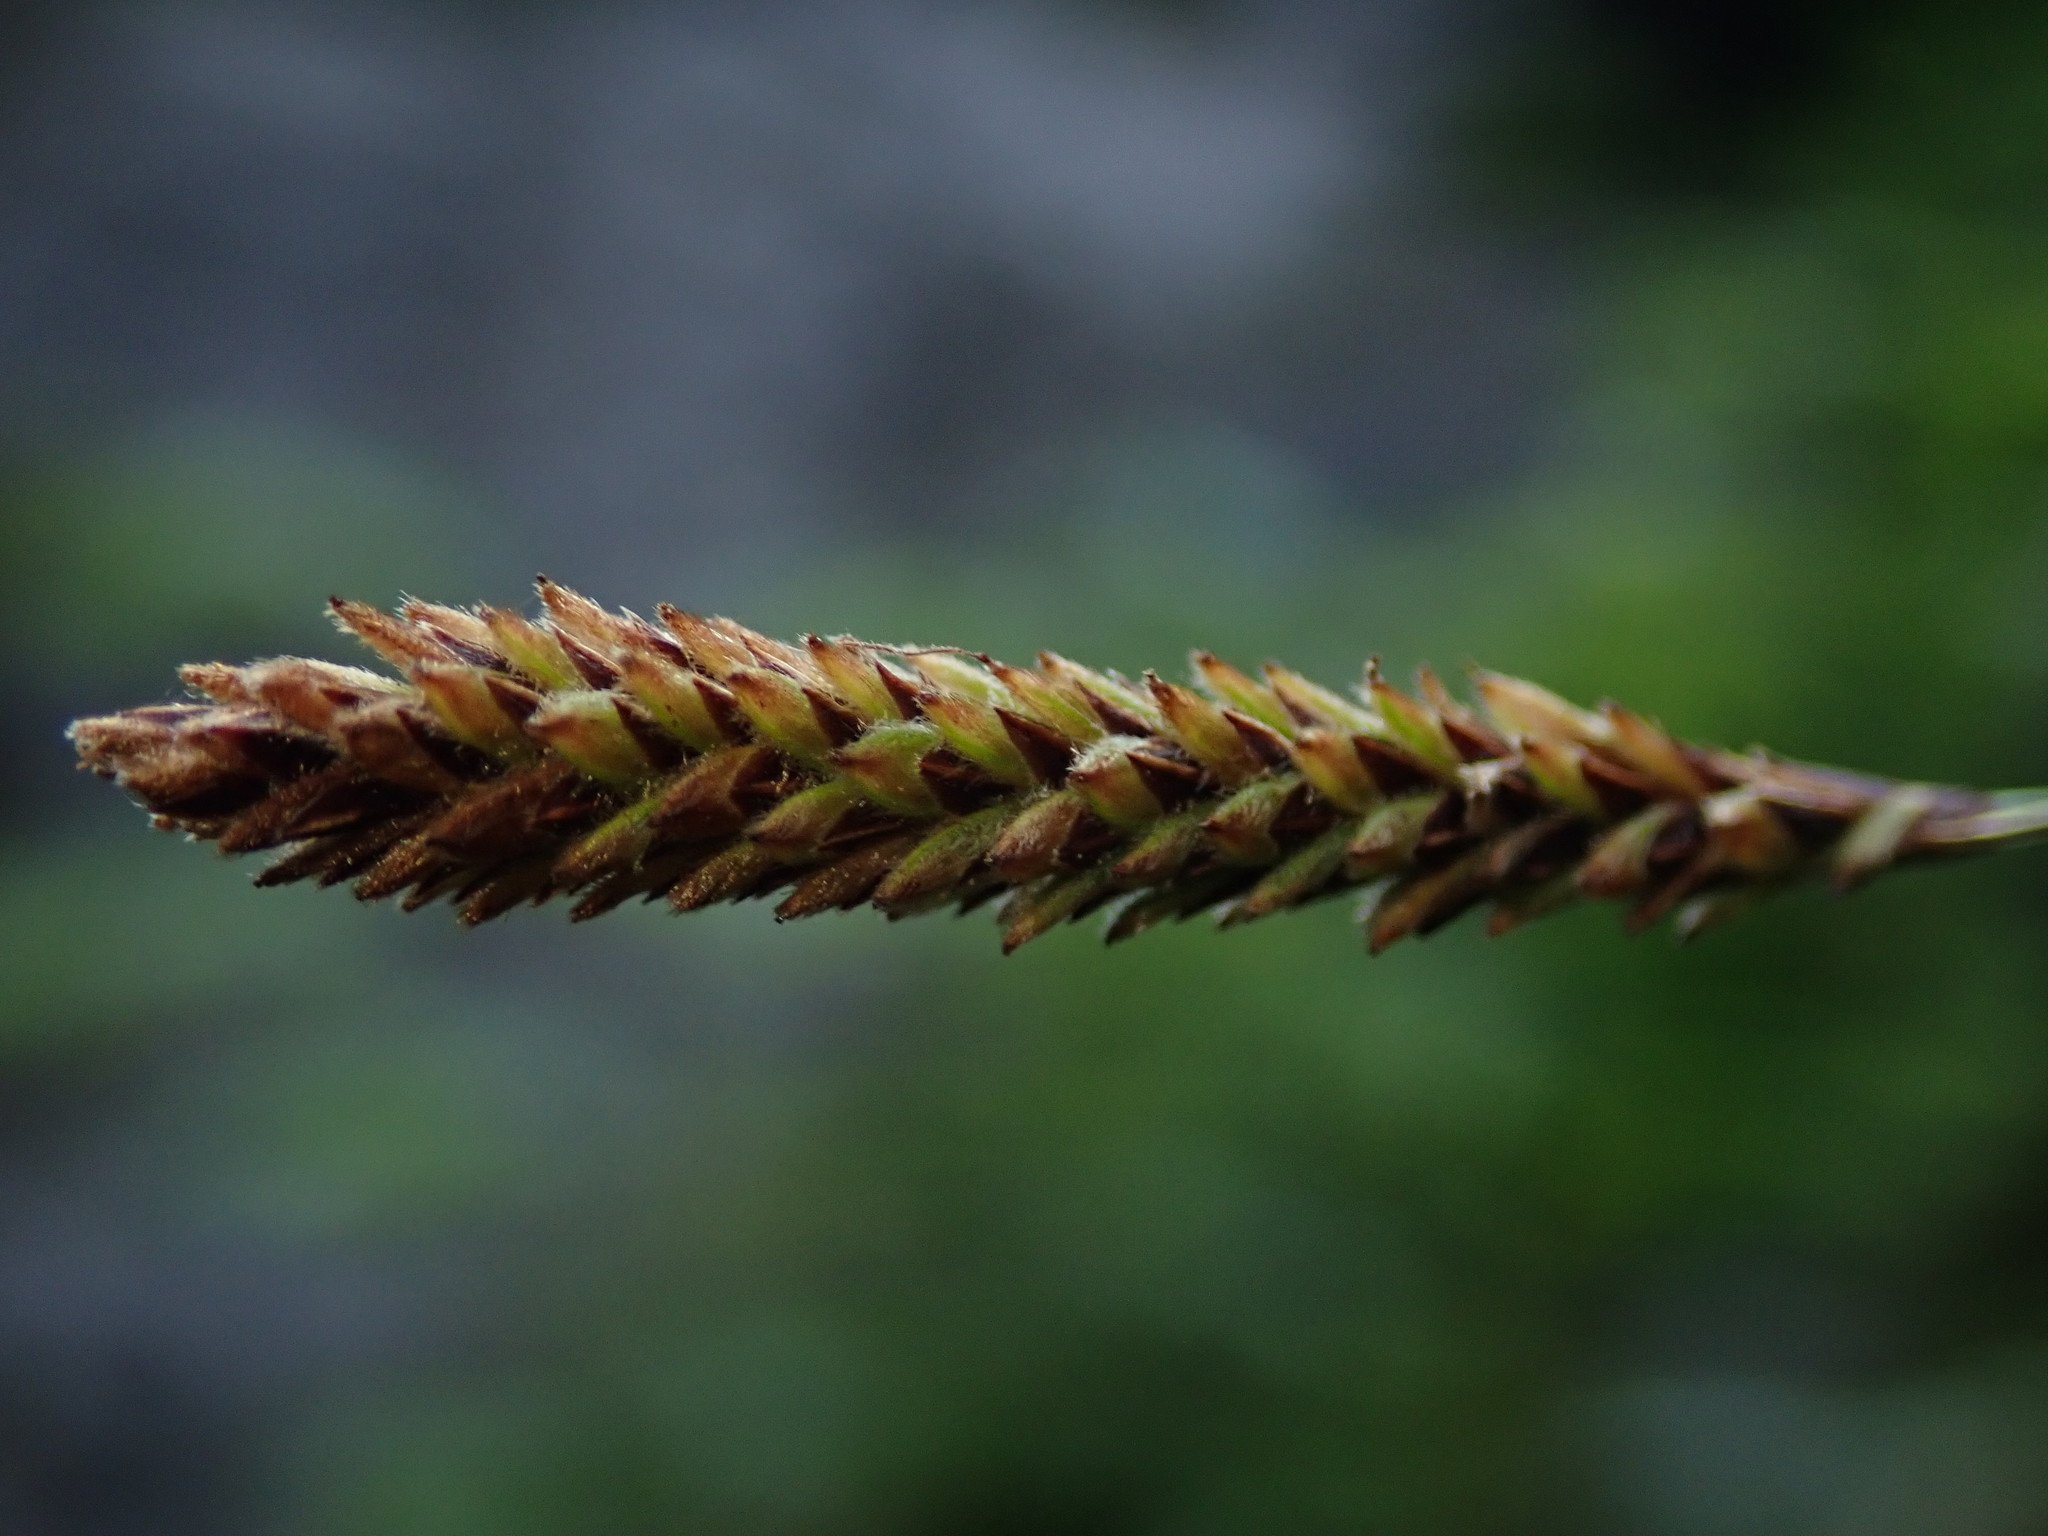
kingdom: Plantae
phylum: Tracheophyta
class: Liliopsida
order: Poales
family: Cyperaceae
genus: Carex
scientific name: Carex scirpoidea
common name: Canada single-spike sedge
